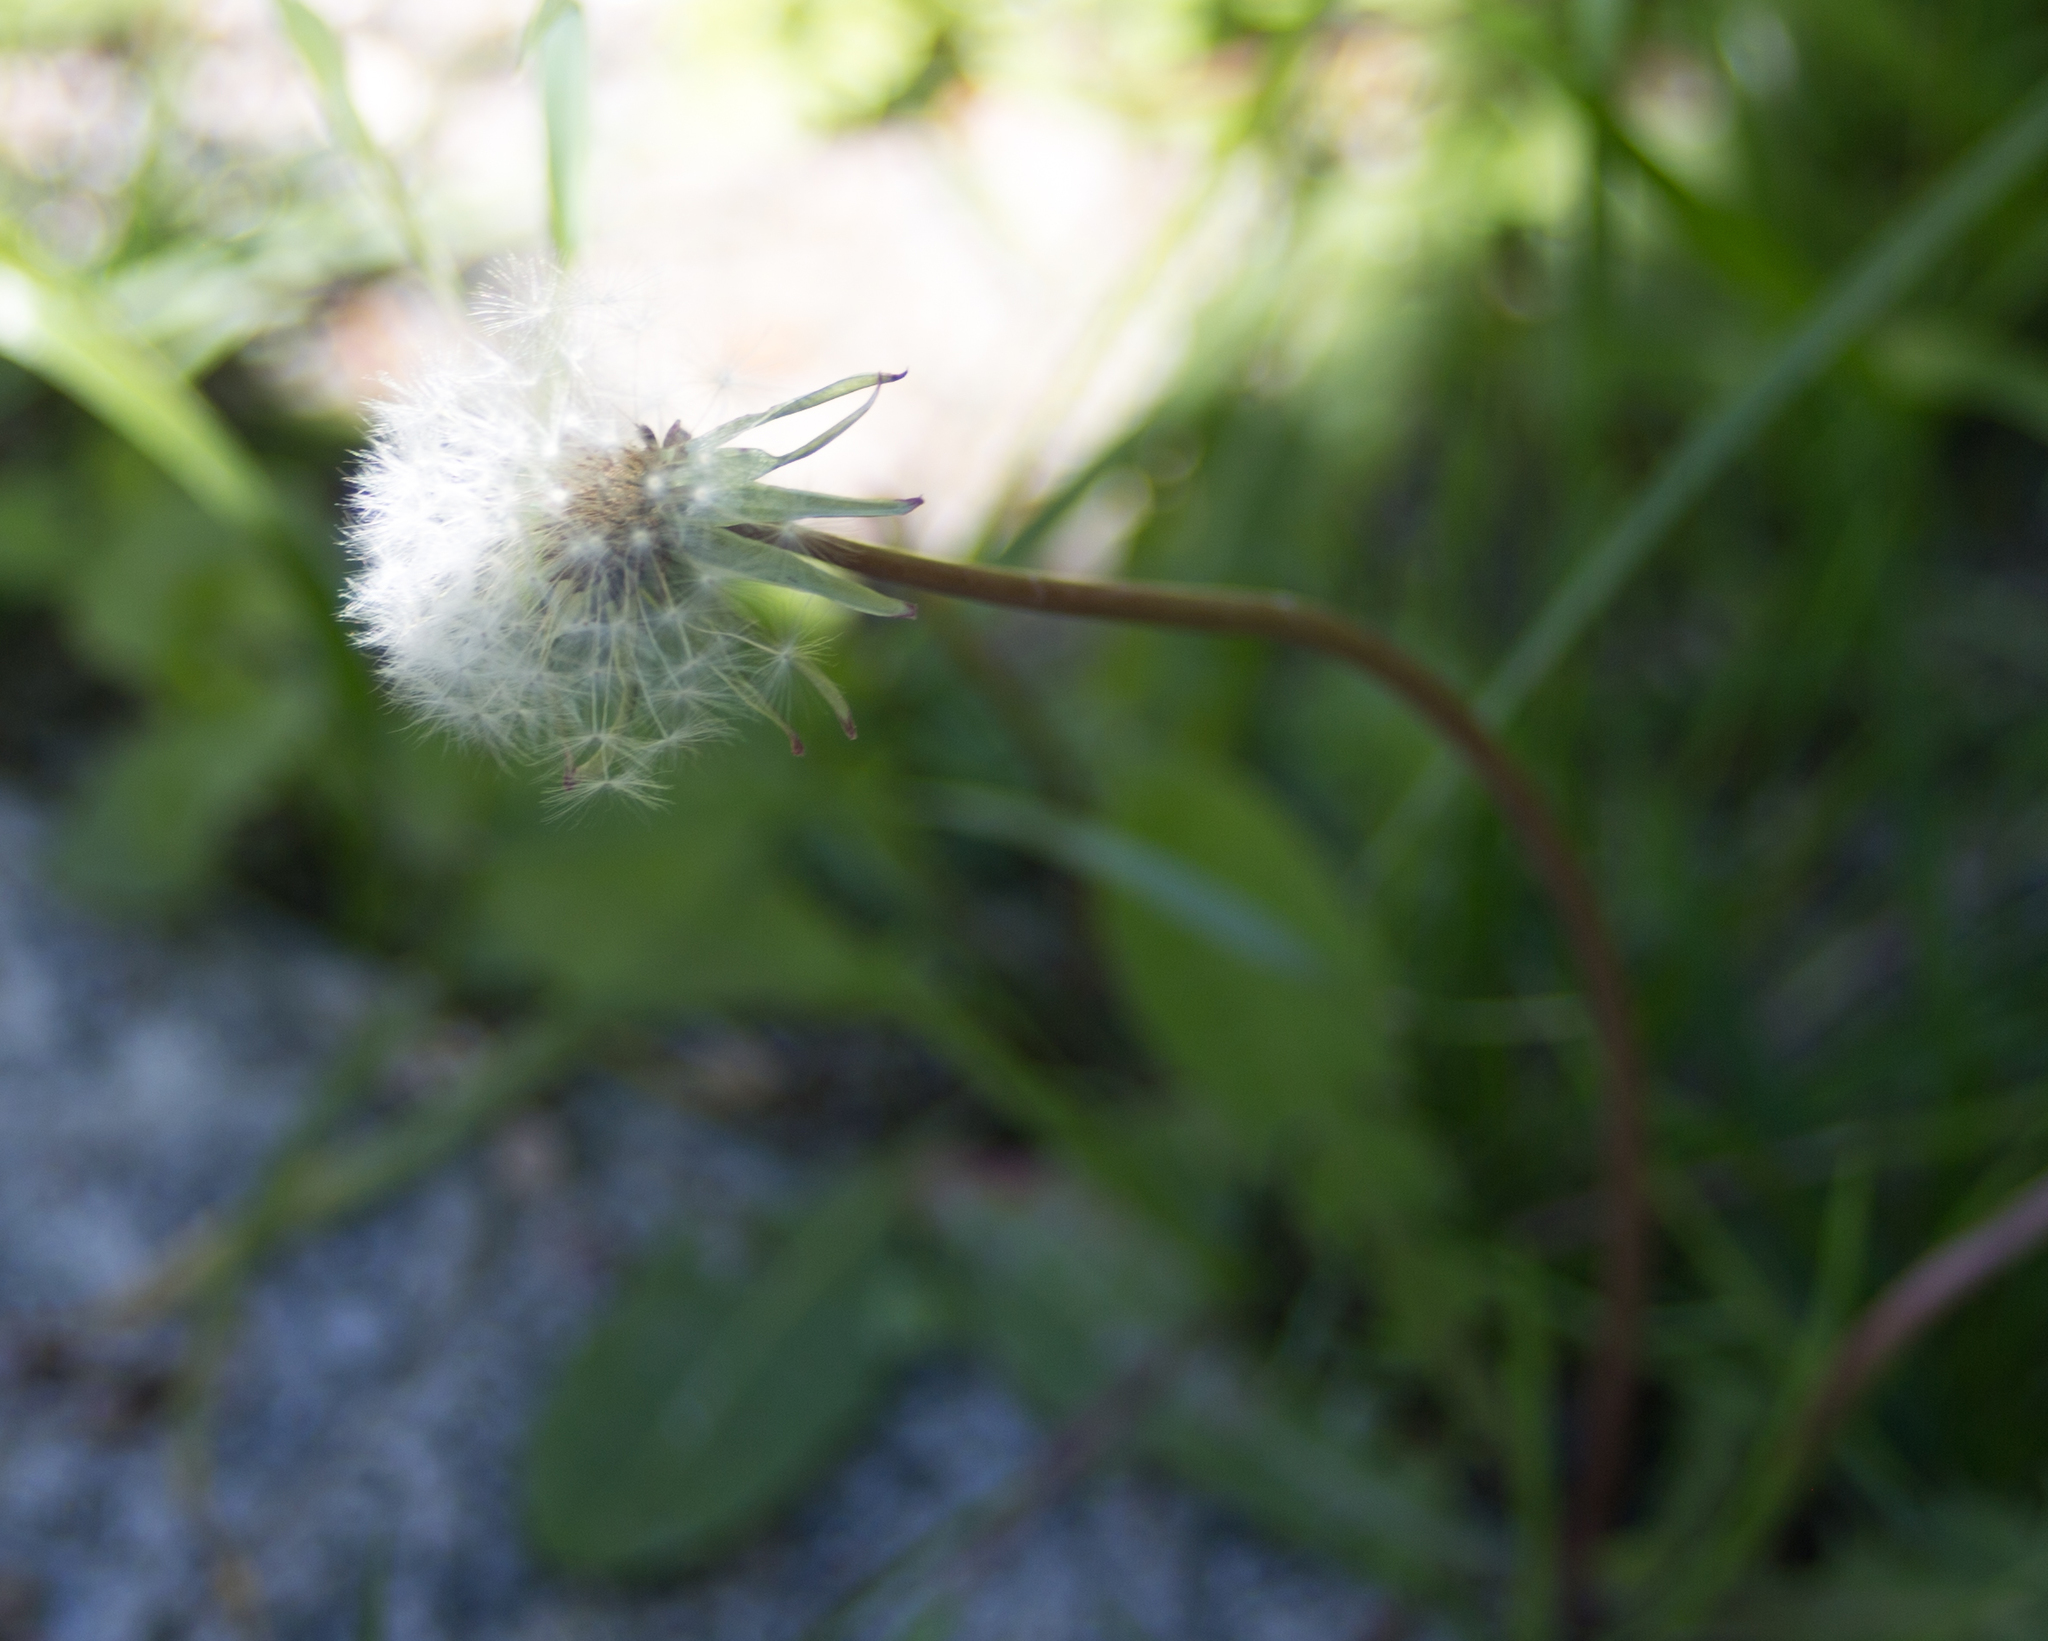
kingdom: Plantae
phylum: Tracheophyta
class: Magnoliopsida
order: Asterales
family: Asteraceae
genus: Taraxacum
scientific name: Taraxacum officinale
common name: Common dandelion
